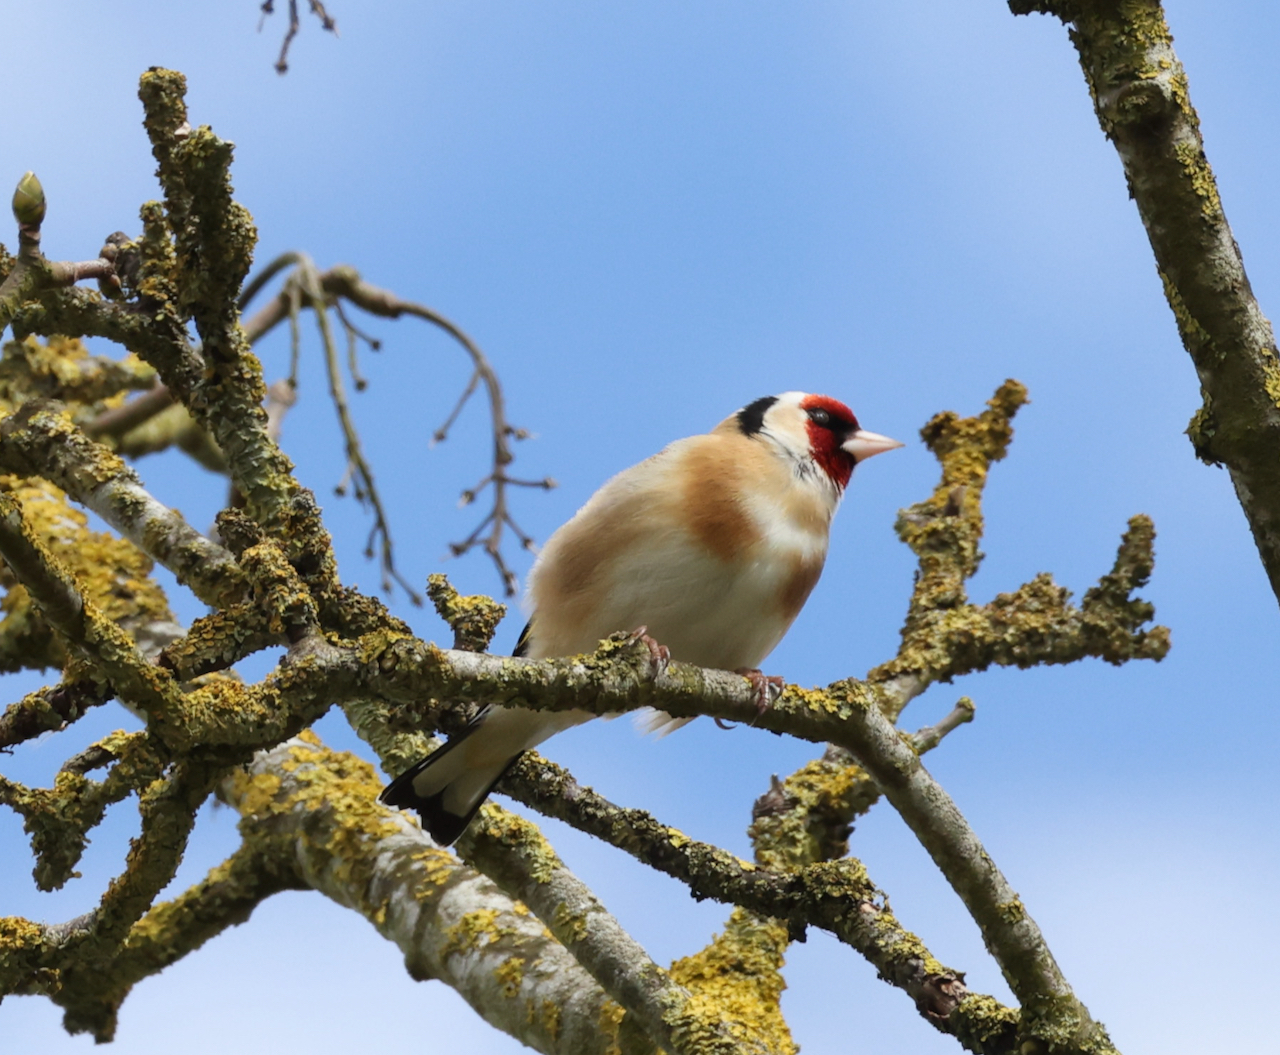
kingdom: Animalia
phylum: Chordata
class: Aves
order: Passeriformes
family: Fringillidae
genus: Carduelis
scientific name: Carduelis carduelis
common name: European goldfinch
